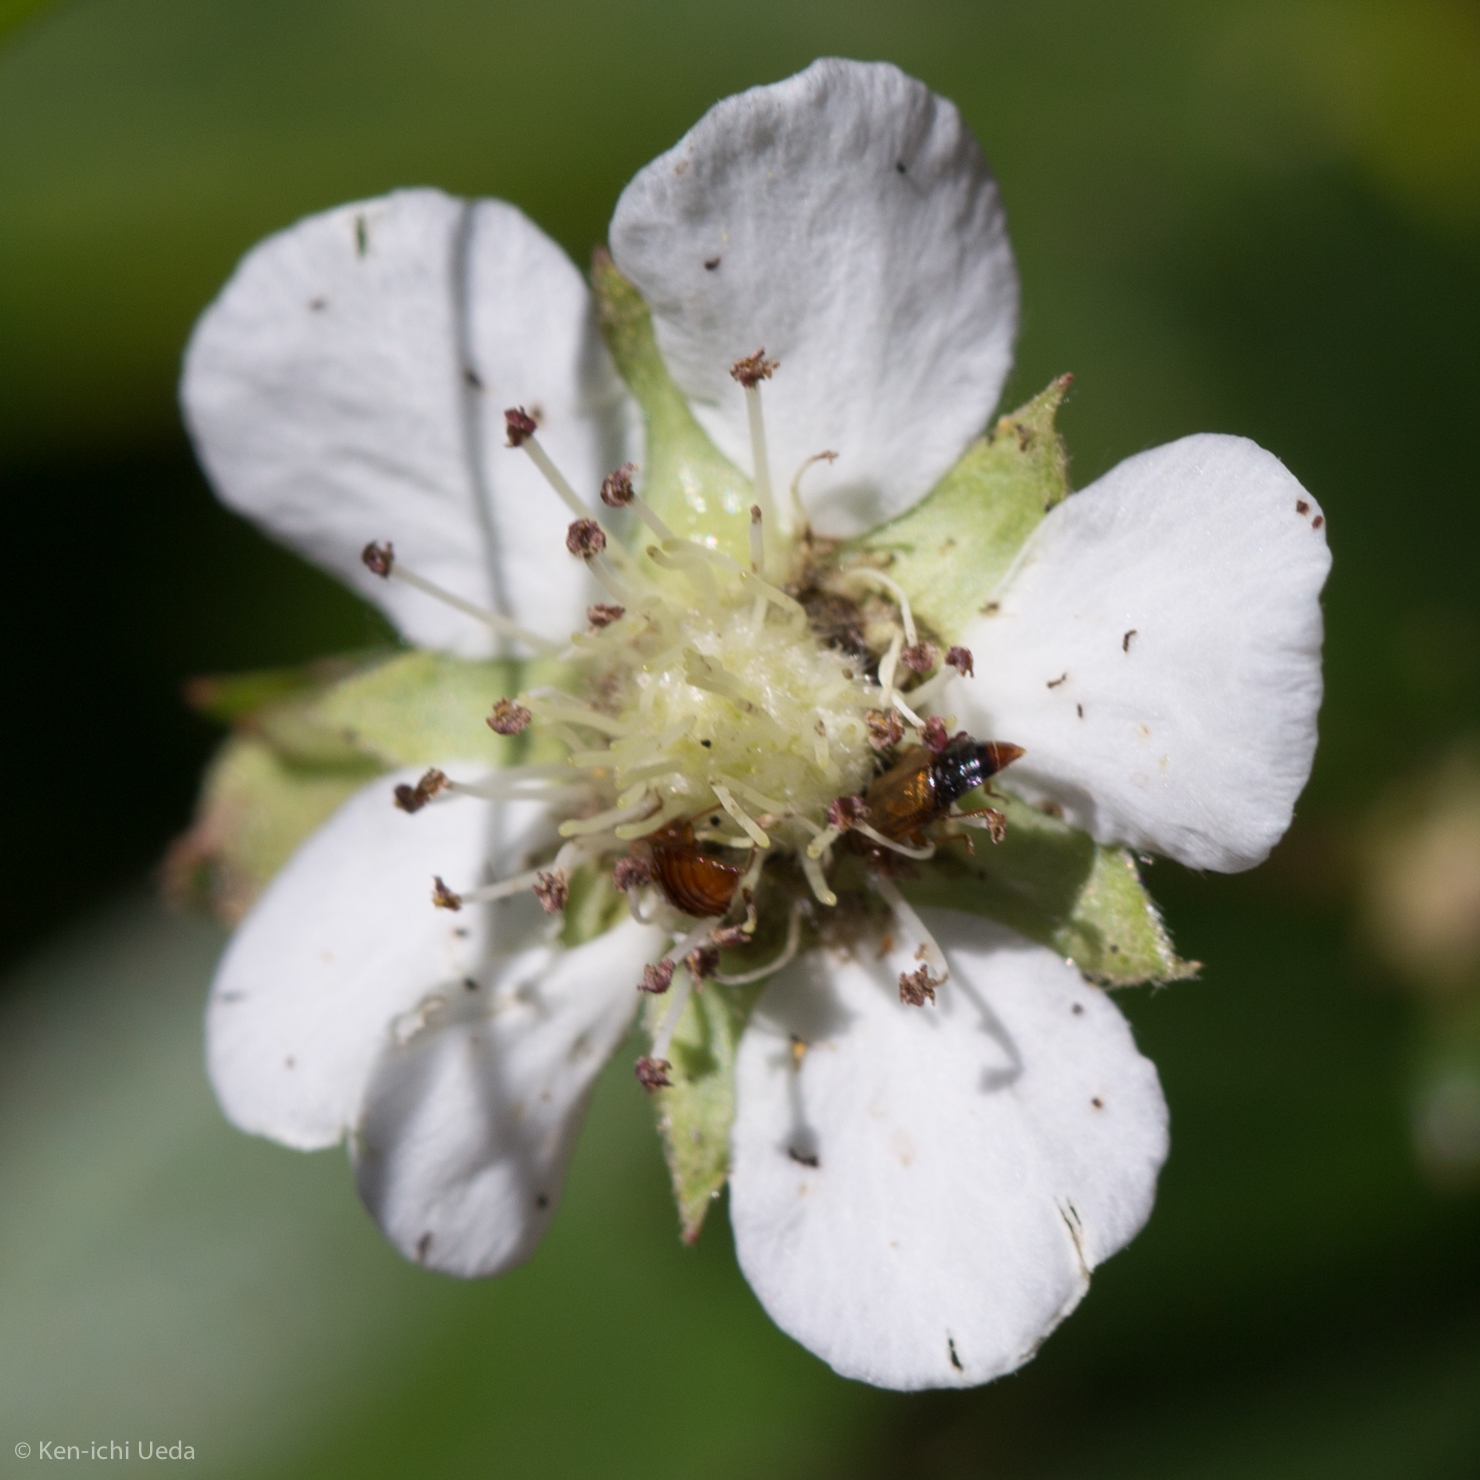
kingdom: Plantae
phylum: Tracheophyta
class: Magnoliopsida
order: Rosales
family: Rosaceae
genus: Sibbaldia
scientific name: Sibbaldia tridentata
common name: Three-toothed cinquefoil
